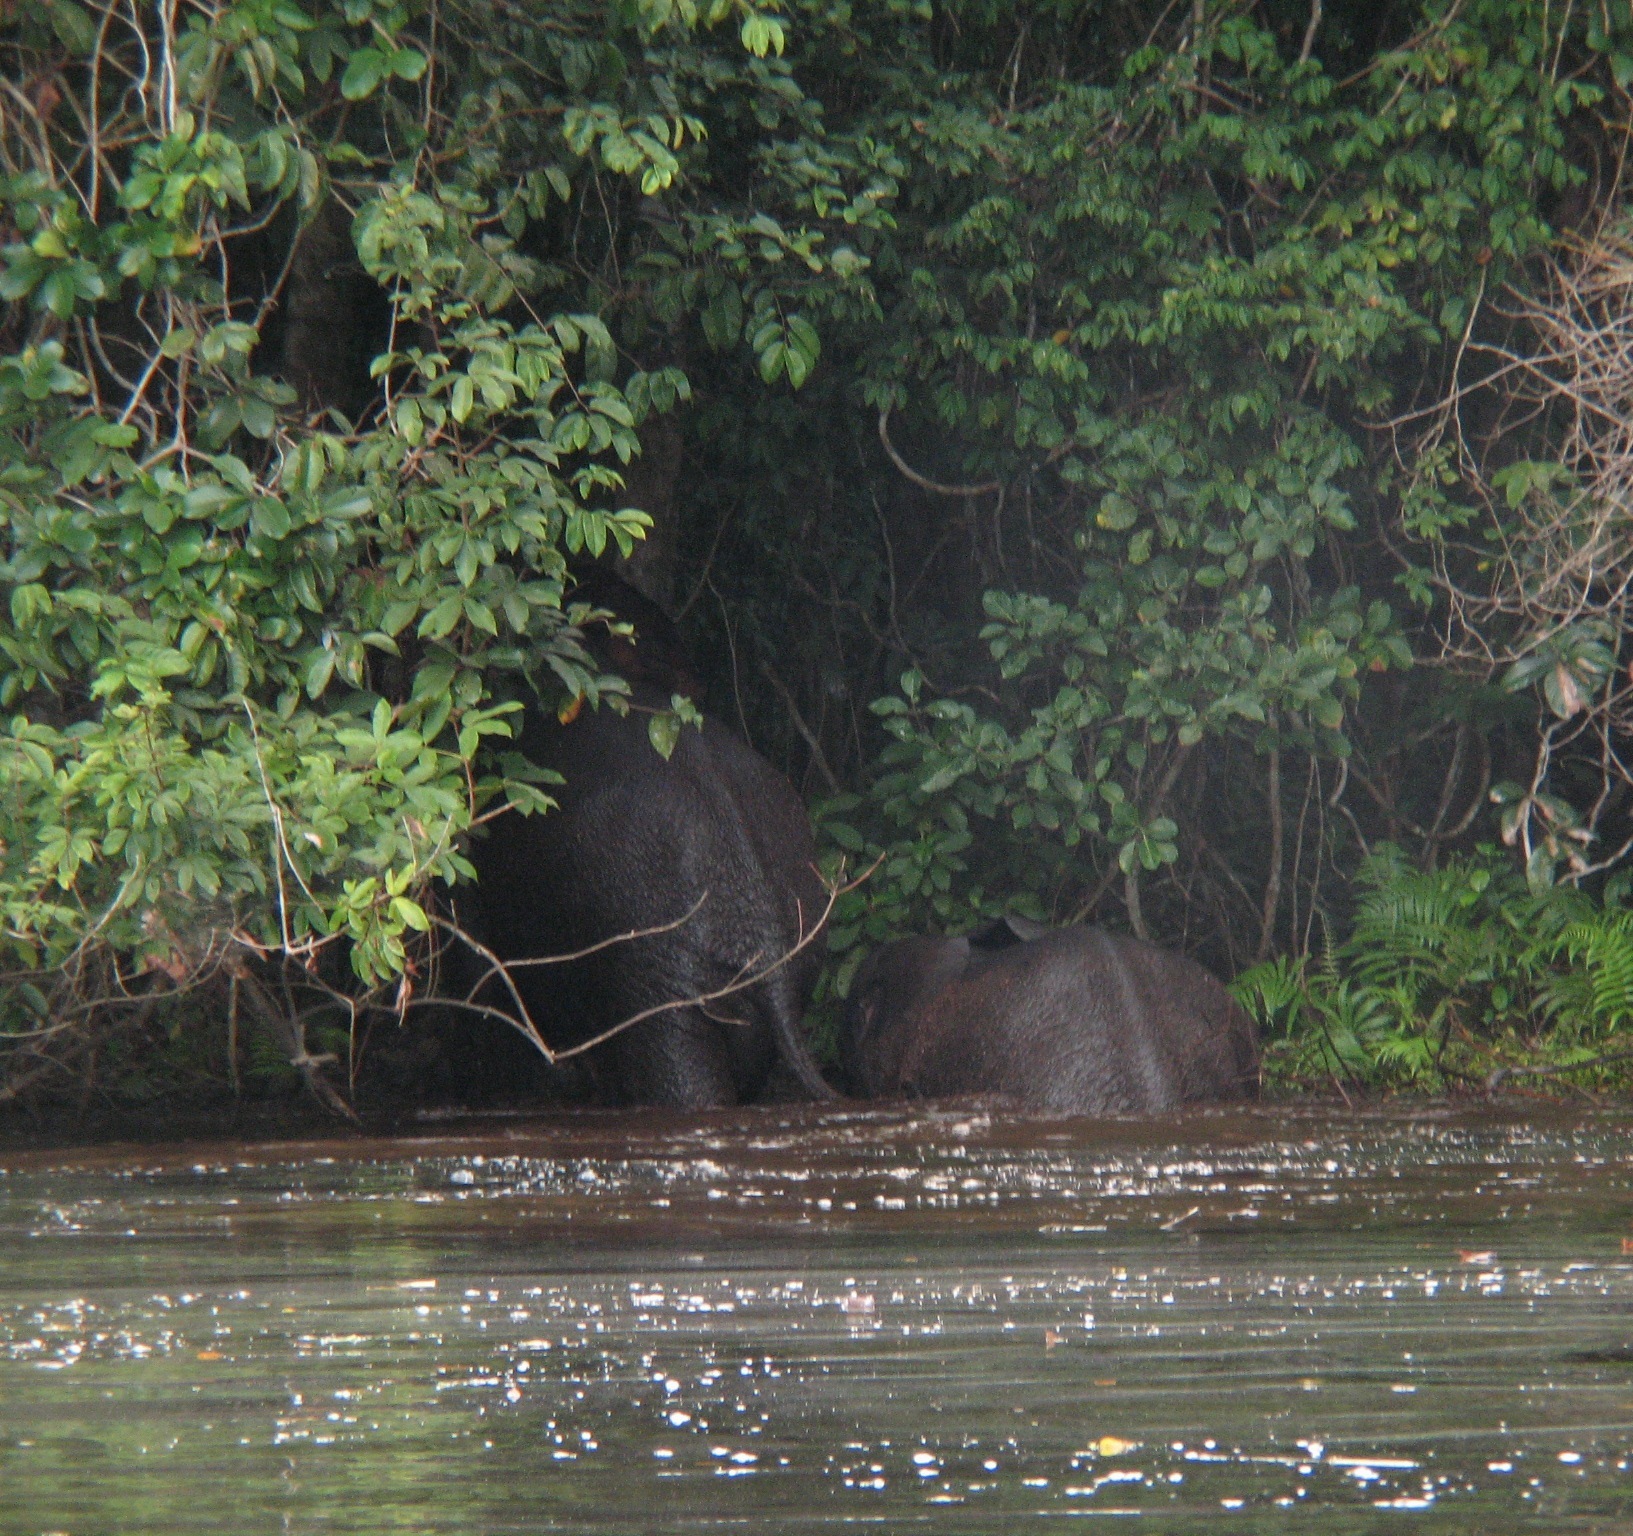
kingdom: Animalia
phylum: Chordata
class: Mammalia
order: Proboscidea
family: Elephantidae
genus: Loxodonta
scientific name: Loxodonta cyclotis
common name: African forest elephant
